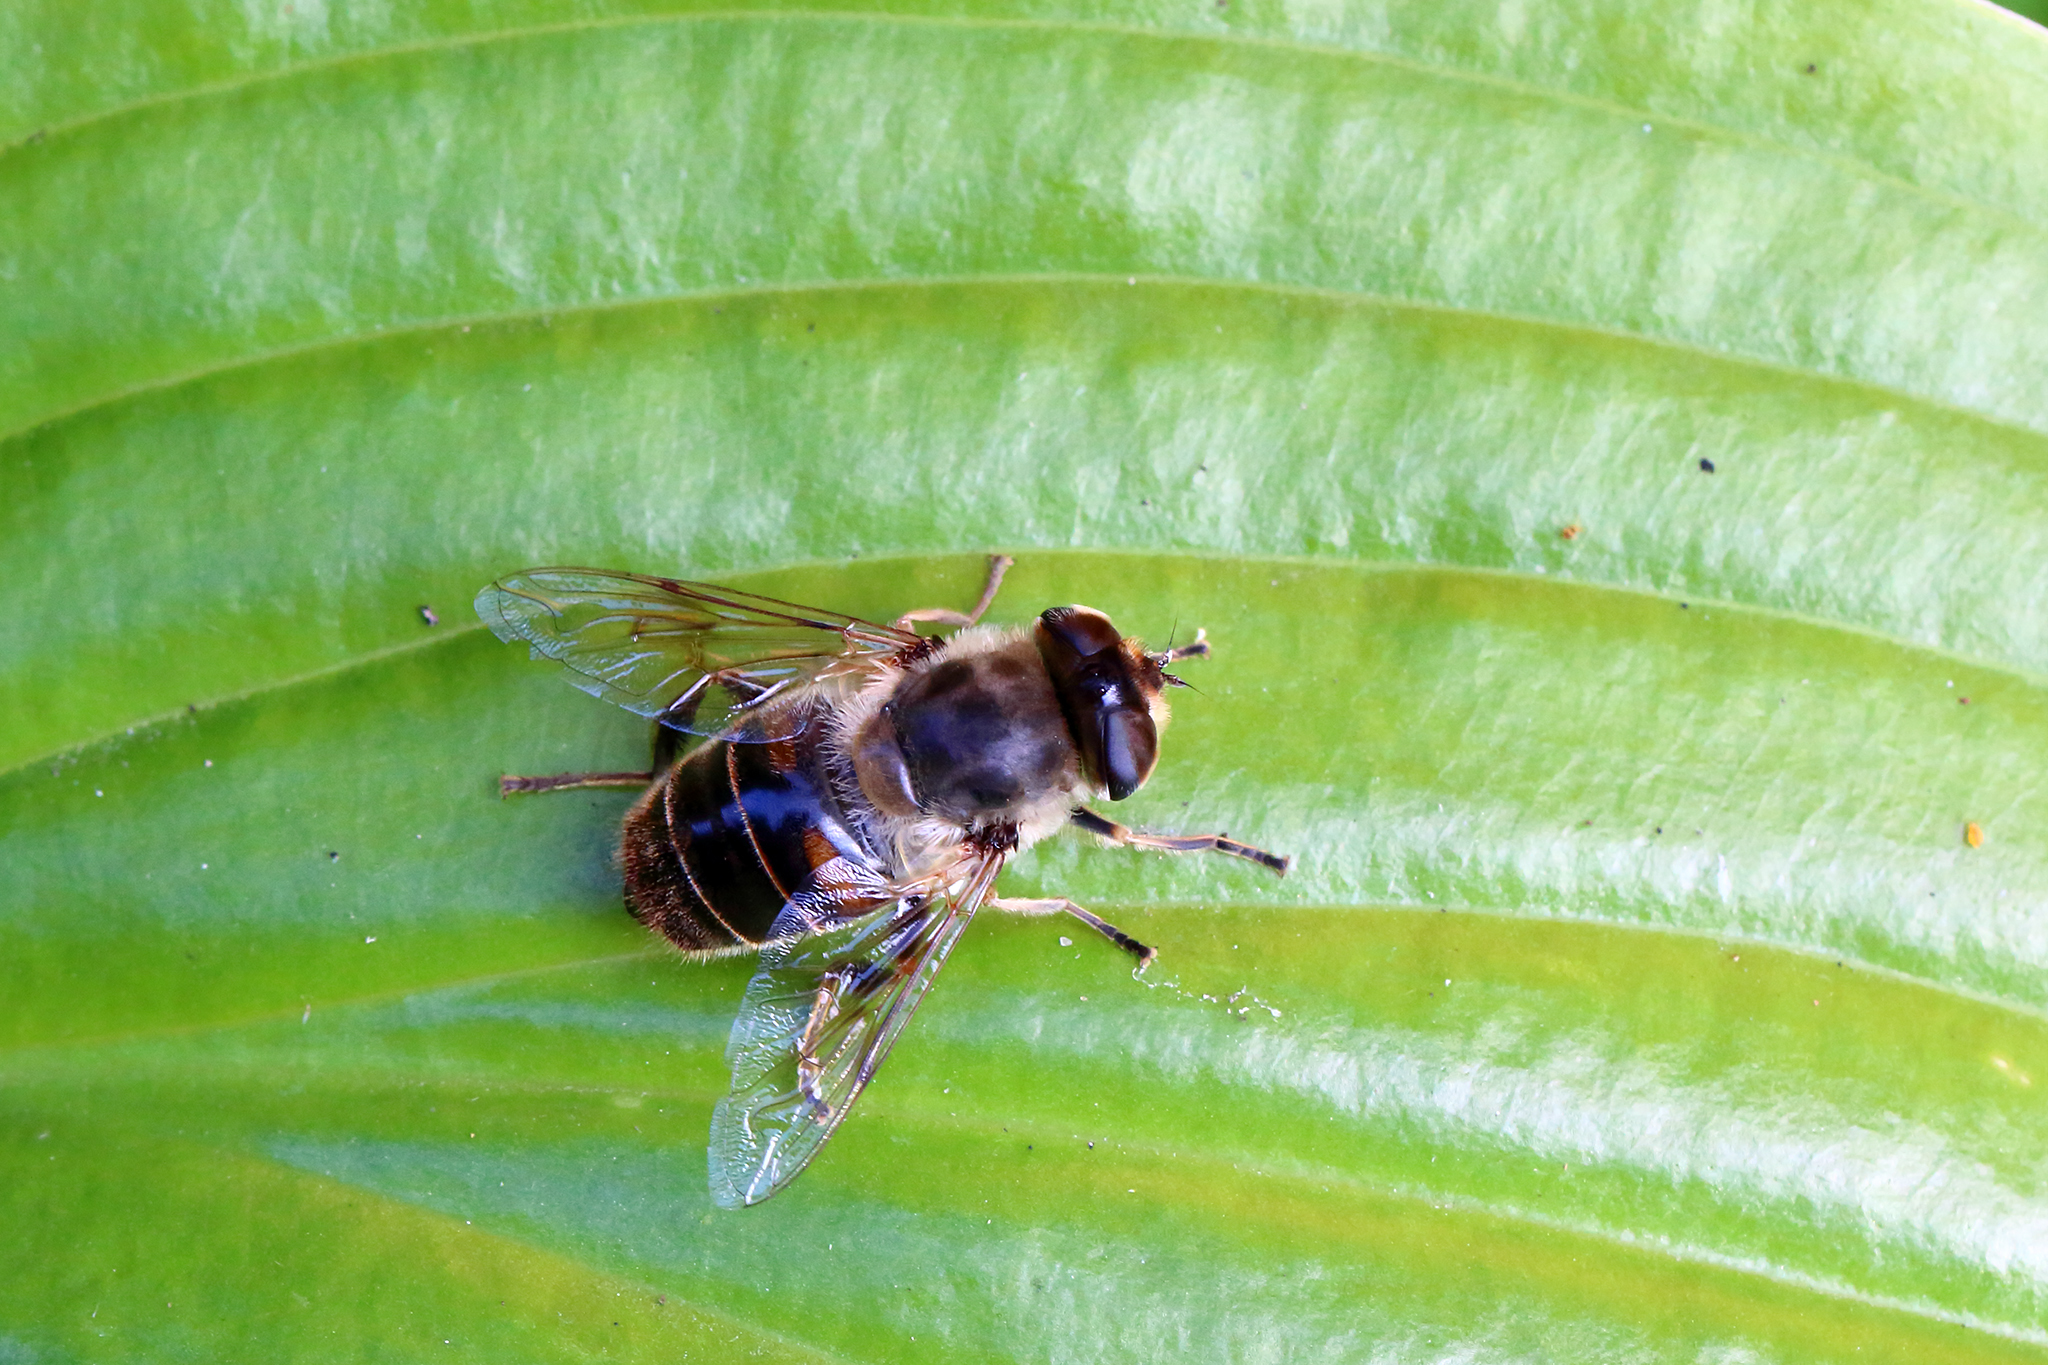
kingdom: Animalia
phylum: Arthropoda
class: Insecta
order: Diptera
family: Syrphidae
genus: Eristalis
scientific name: Eristalis tenax
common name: Drone fly
